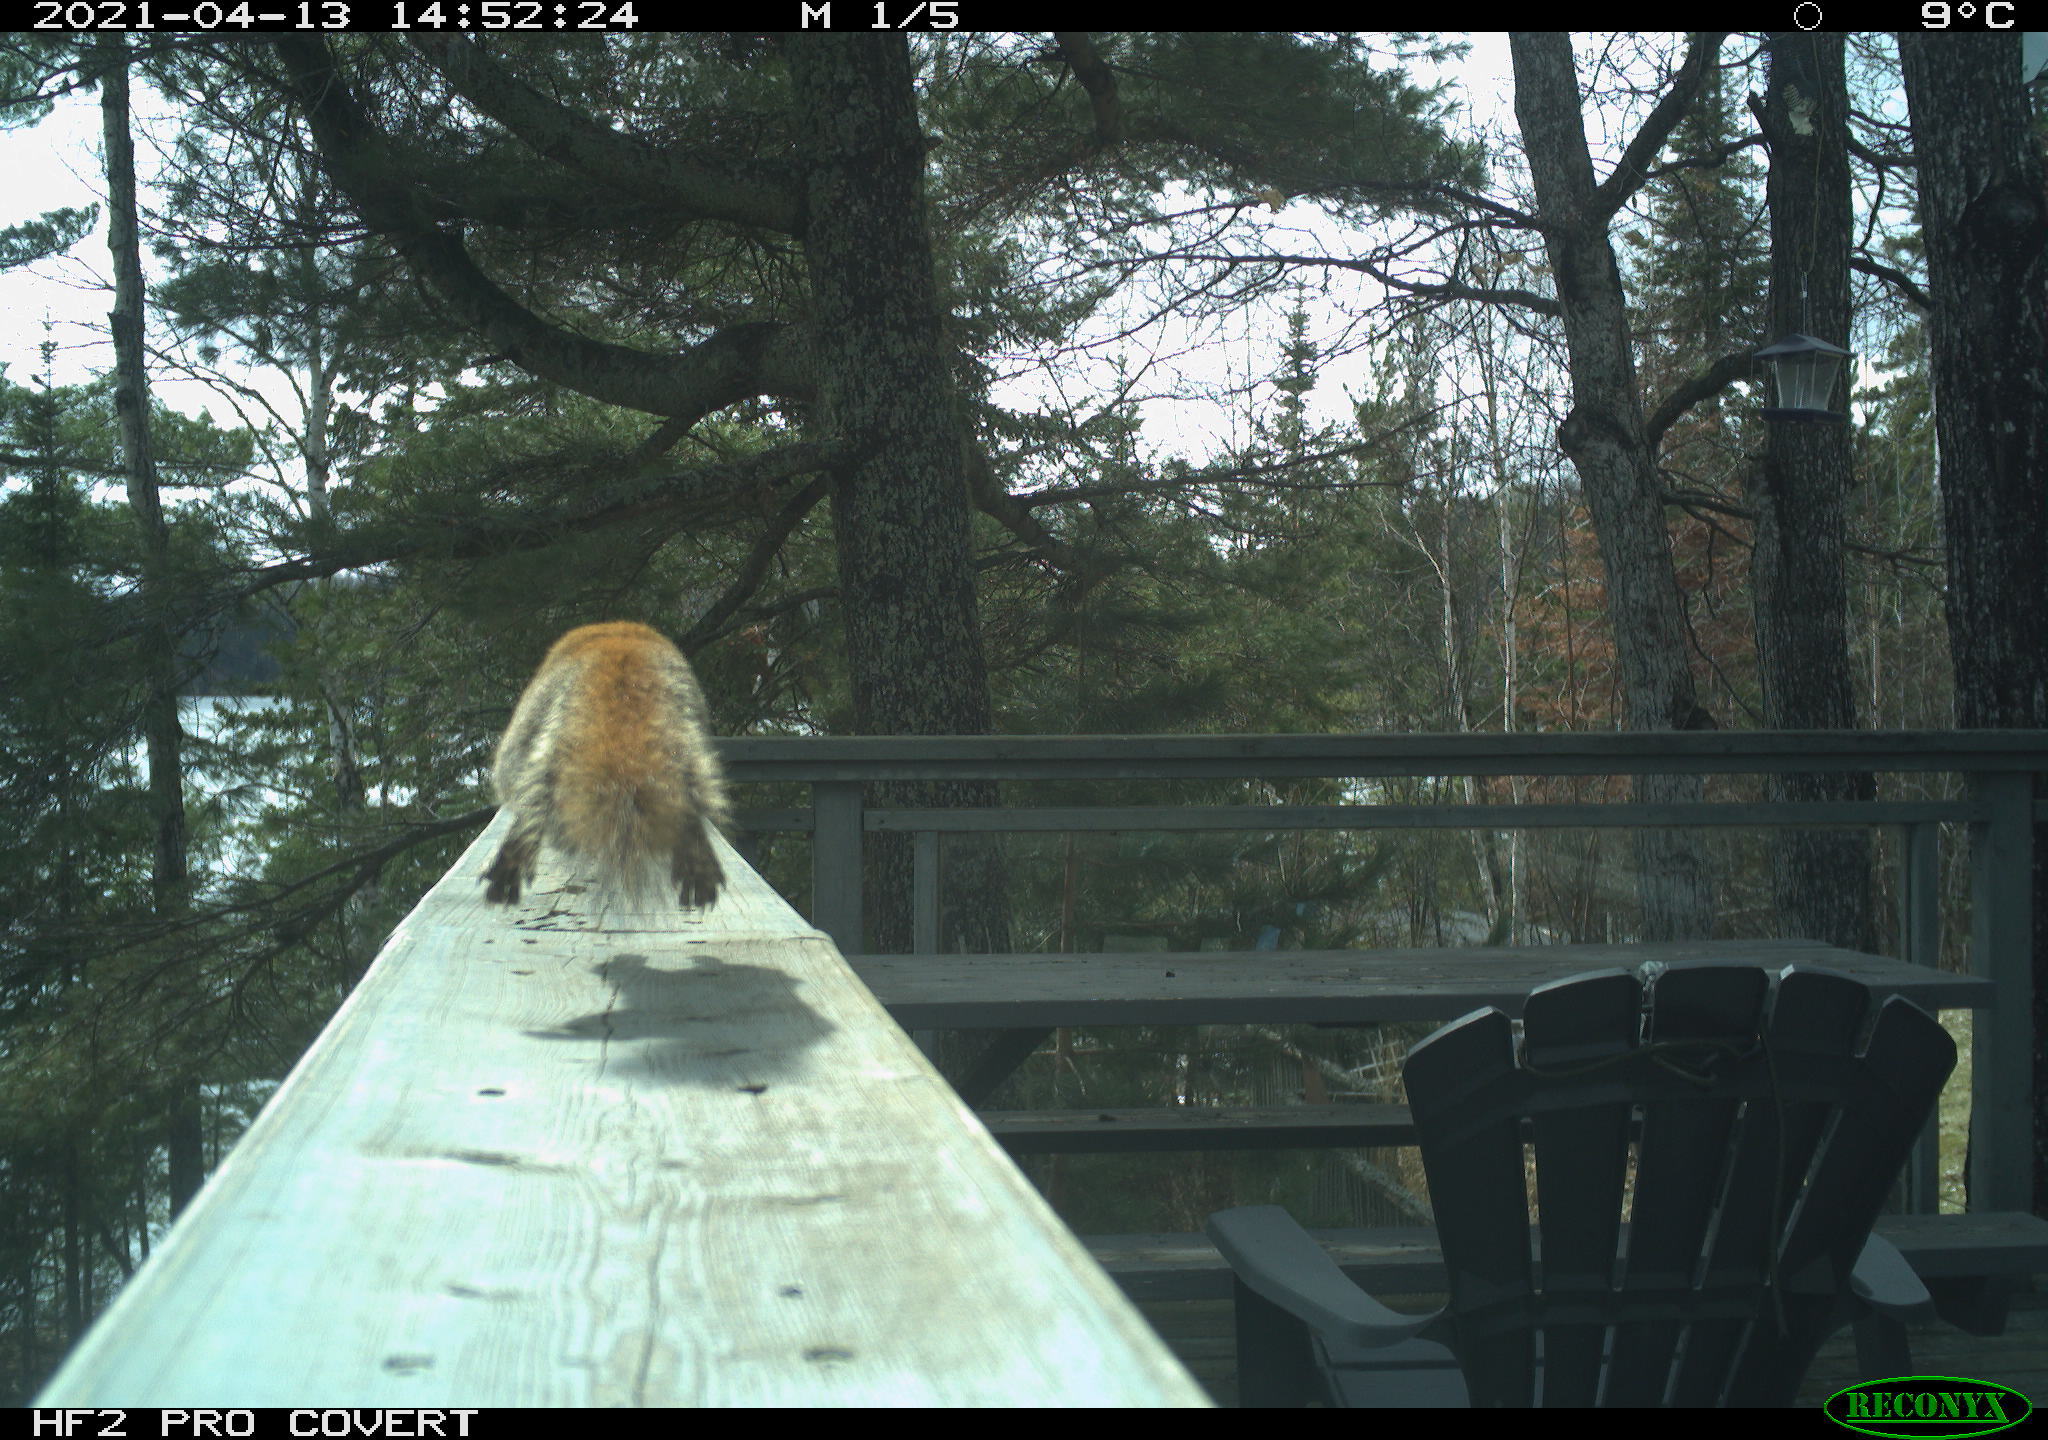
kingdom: Animalia
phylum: Chordata
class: Mammalia
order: Rodentia
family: Sciuridae
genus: Tamiasciurus
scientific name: Tamiasciurus hudsonicus
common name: Red squirrel
